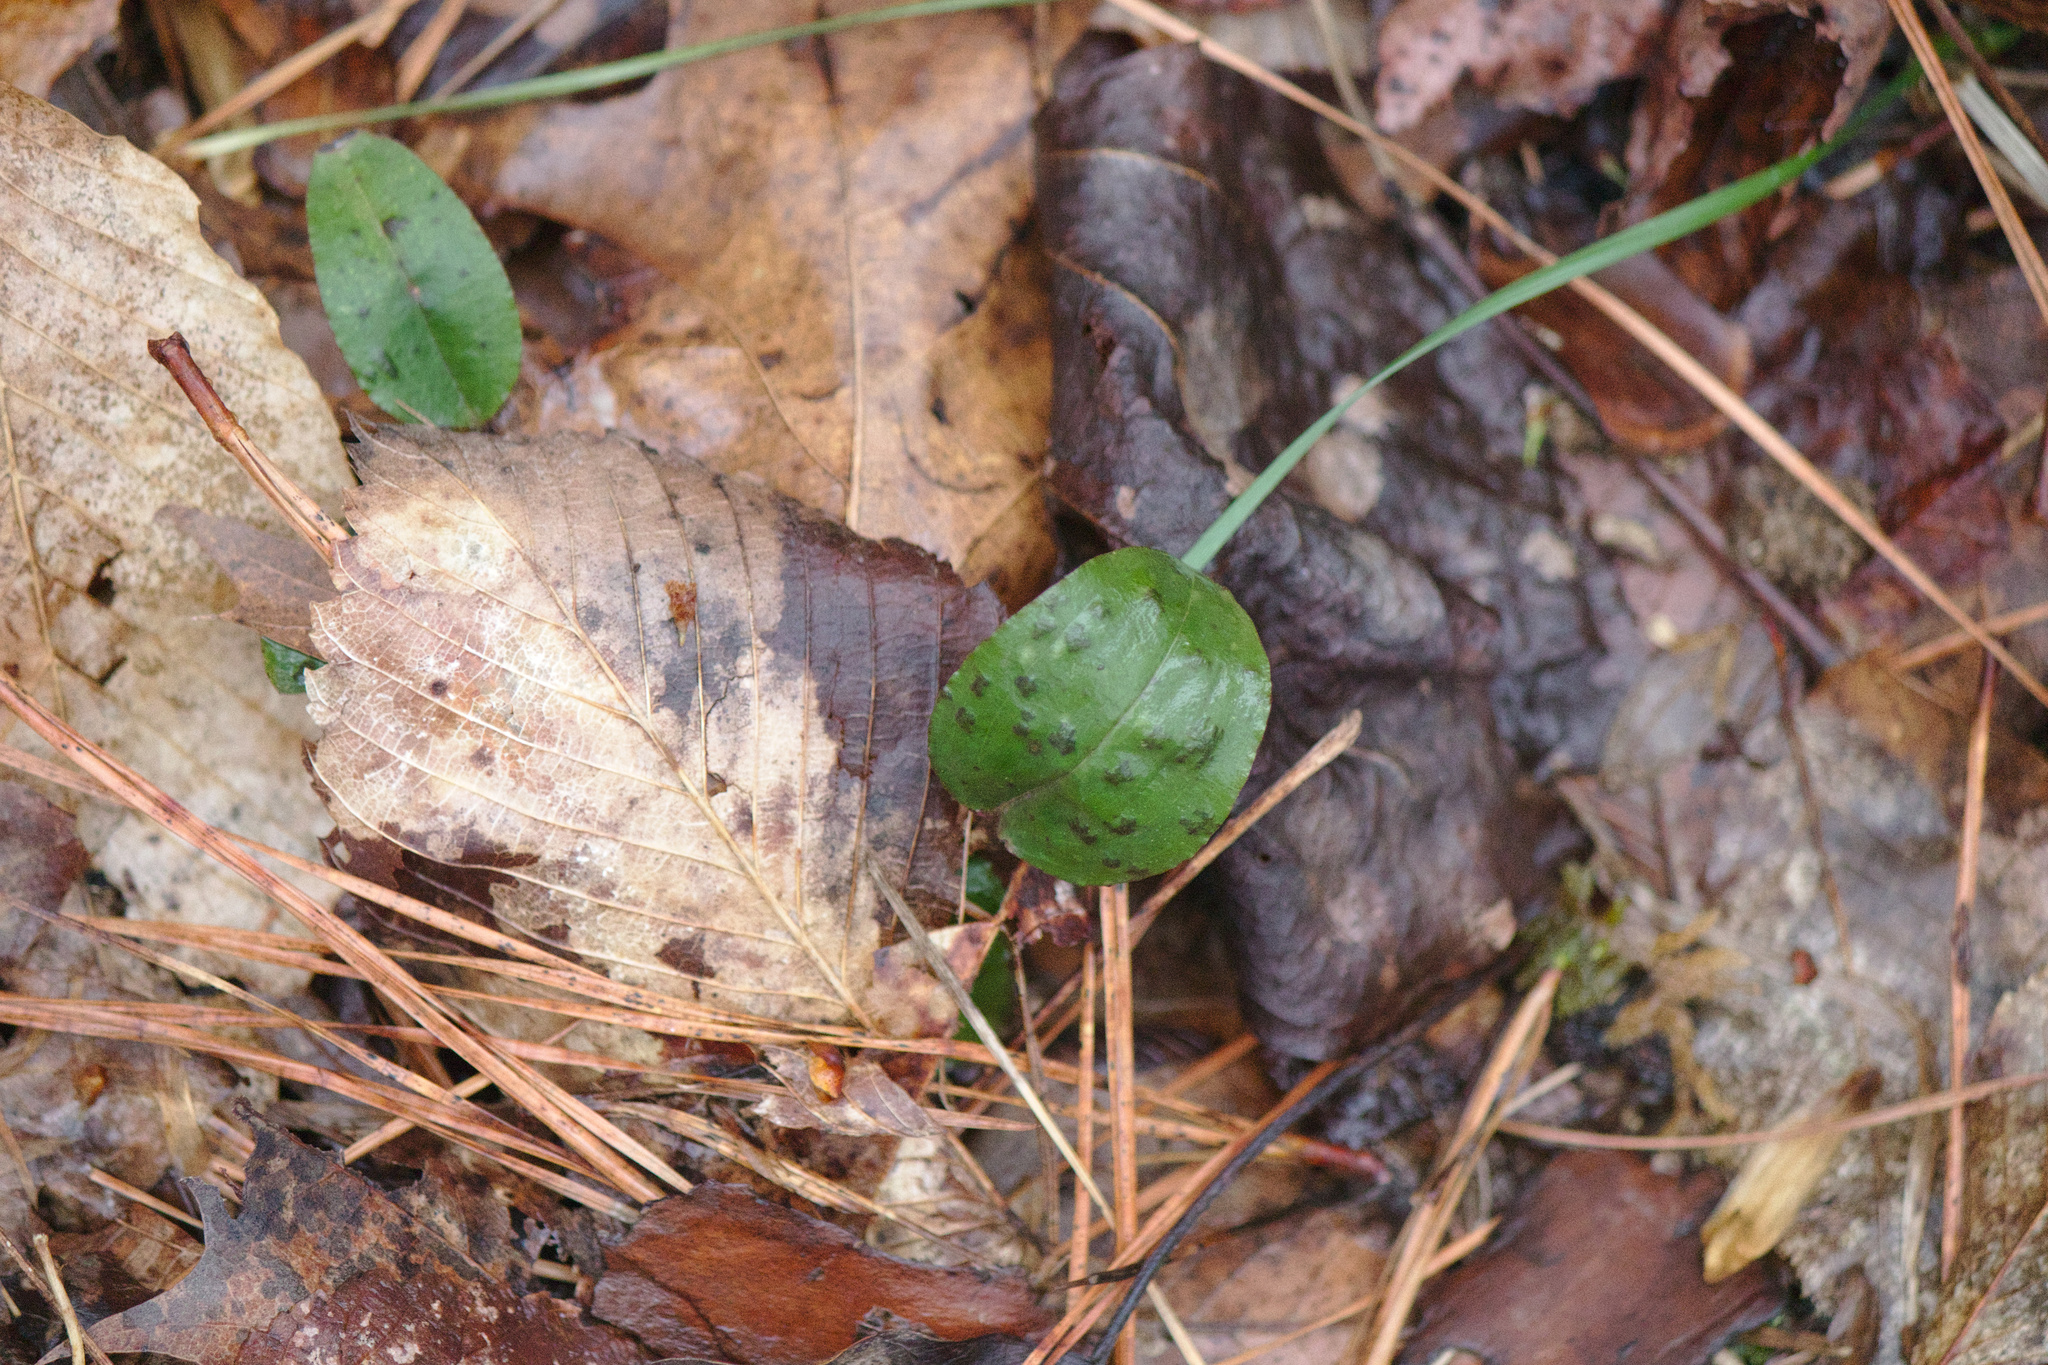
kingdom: Plantae
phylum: Tracheophyta
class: Liliopsida
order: Asparagales
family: Orchidaceae
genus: Tipularia
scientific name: Tipularia discolor
